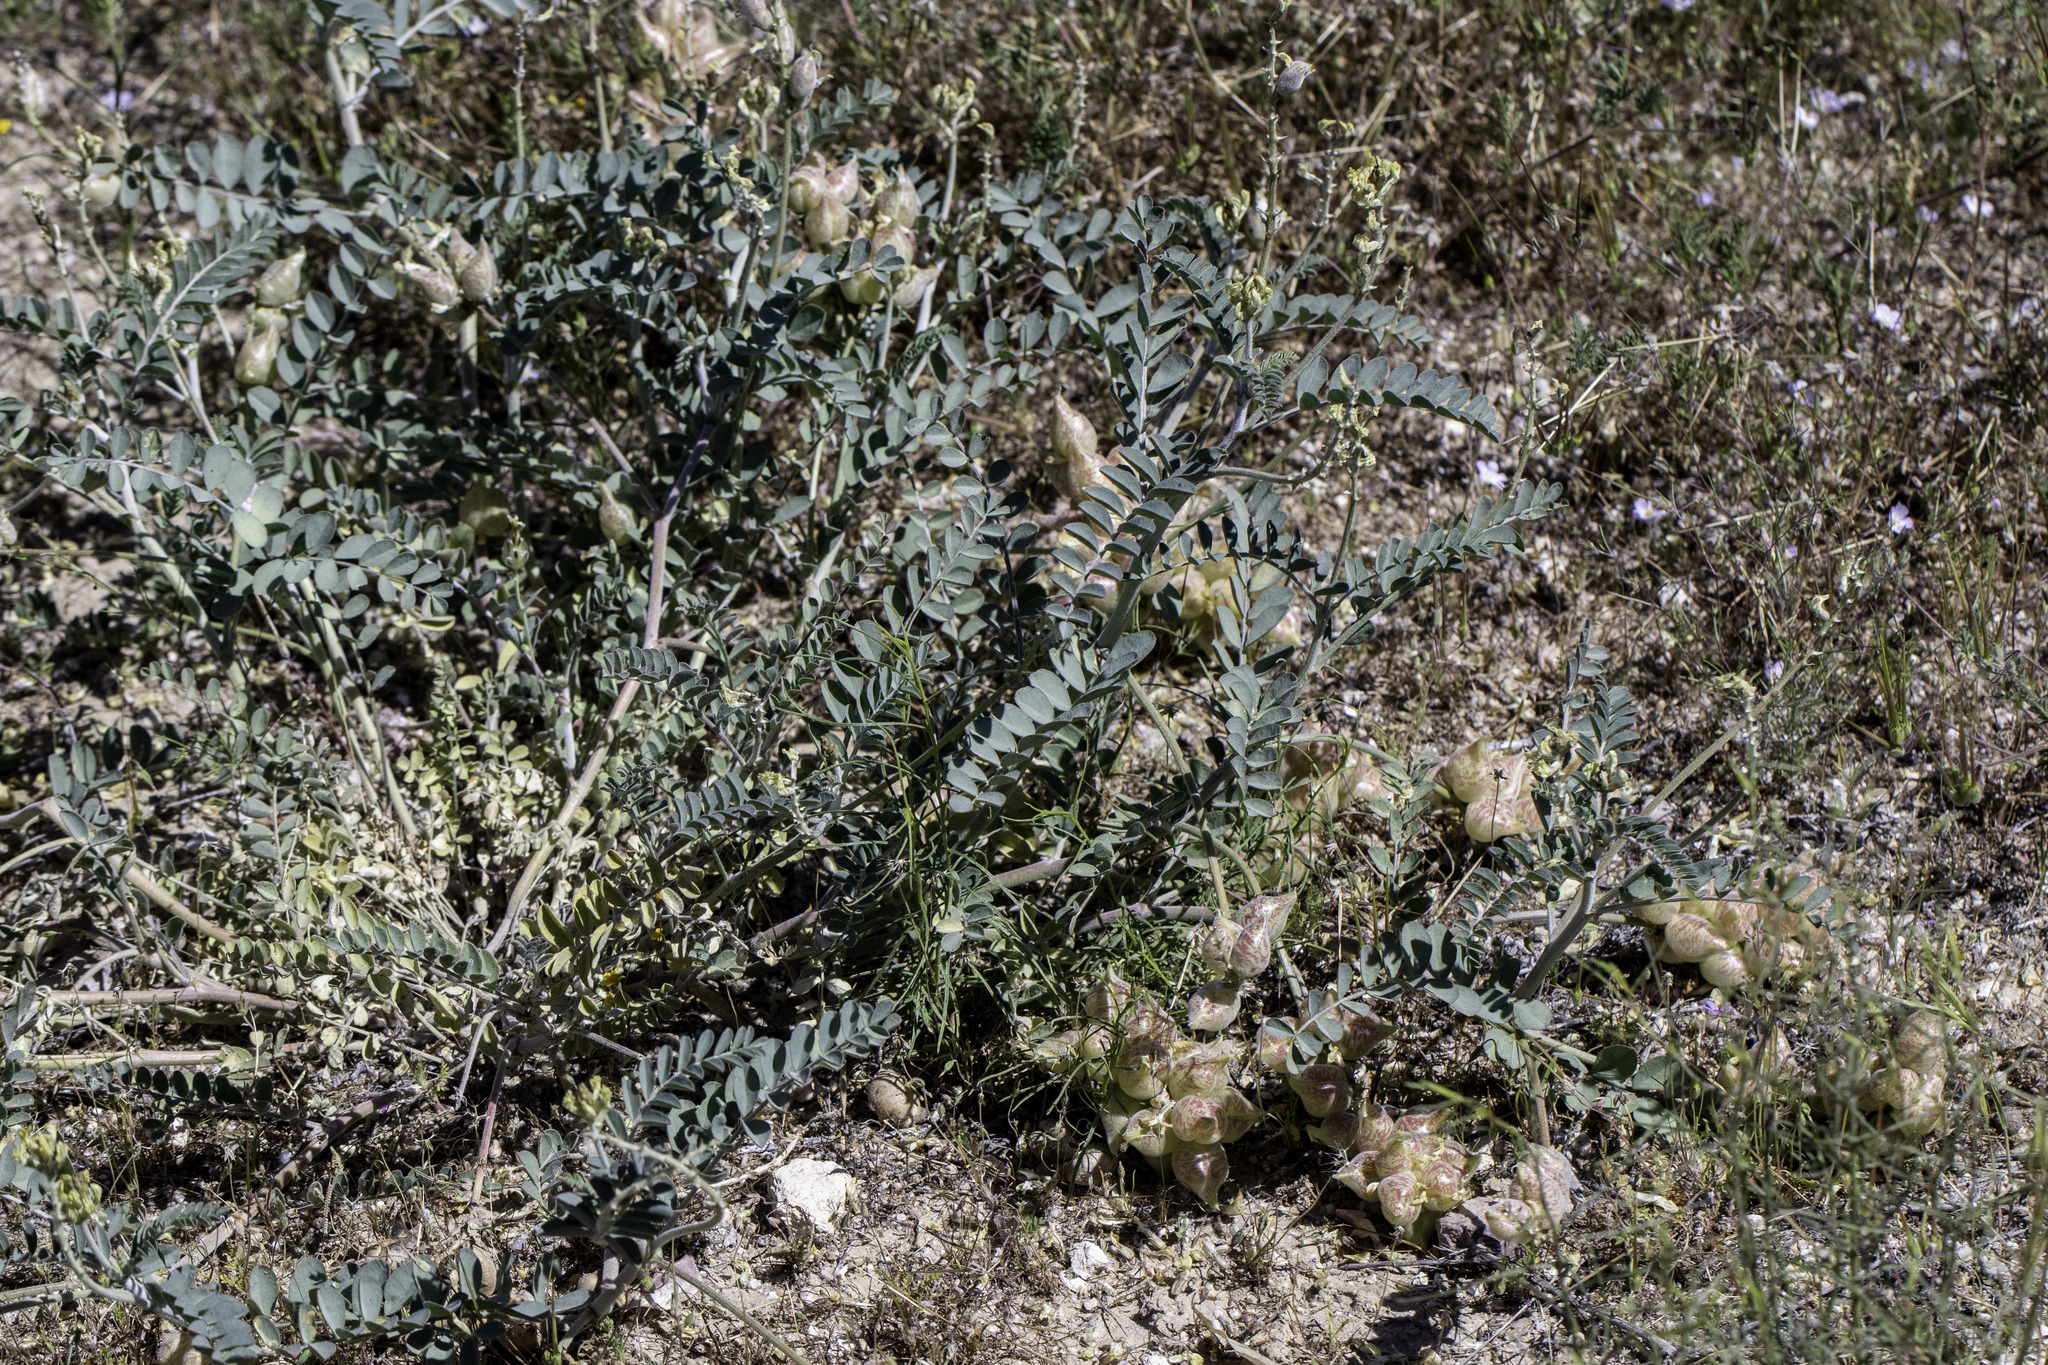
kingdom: Plantae
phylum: Tracheophyta
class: Magnoliopsida
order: Fabales
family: Fabaceae
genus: Astragalus
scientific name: Astragalus lentiginosus
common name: Freckled milkvetch
